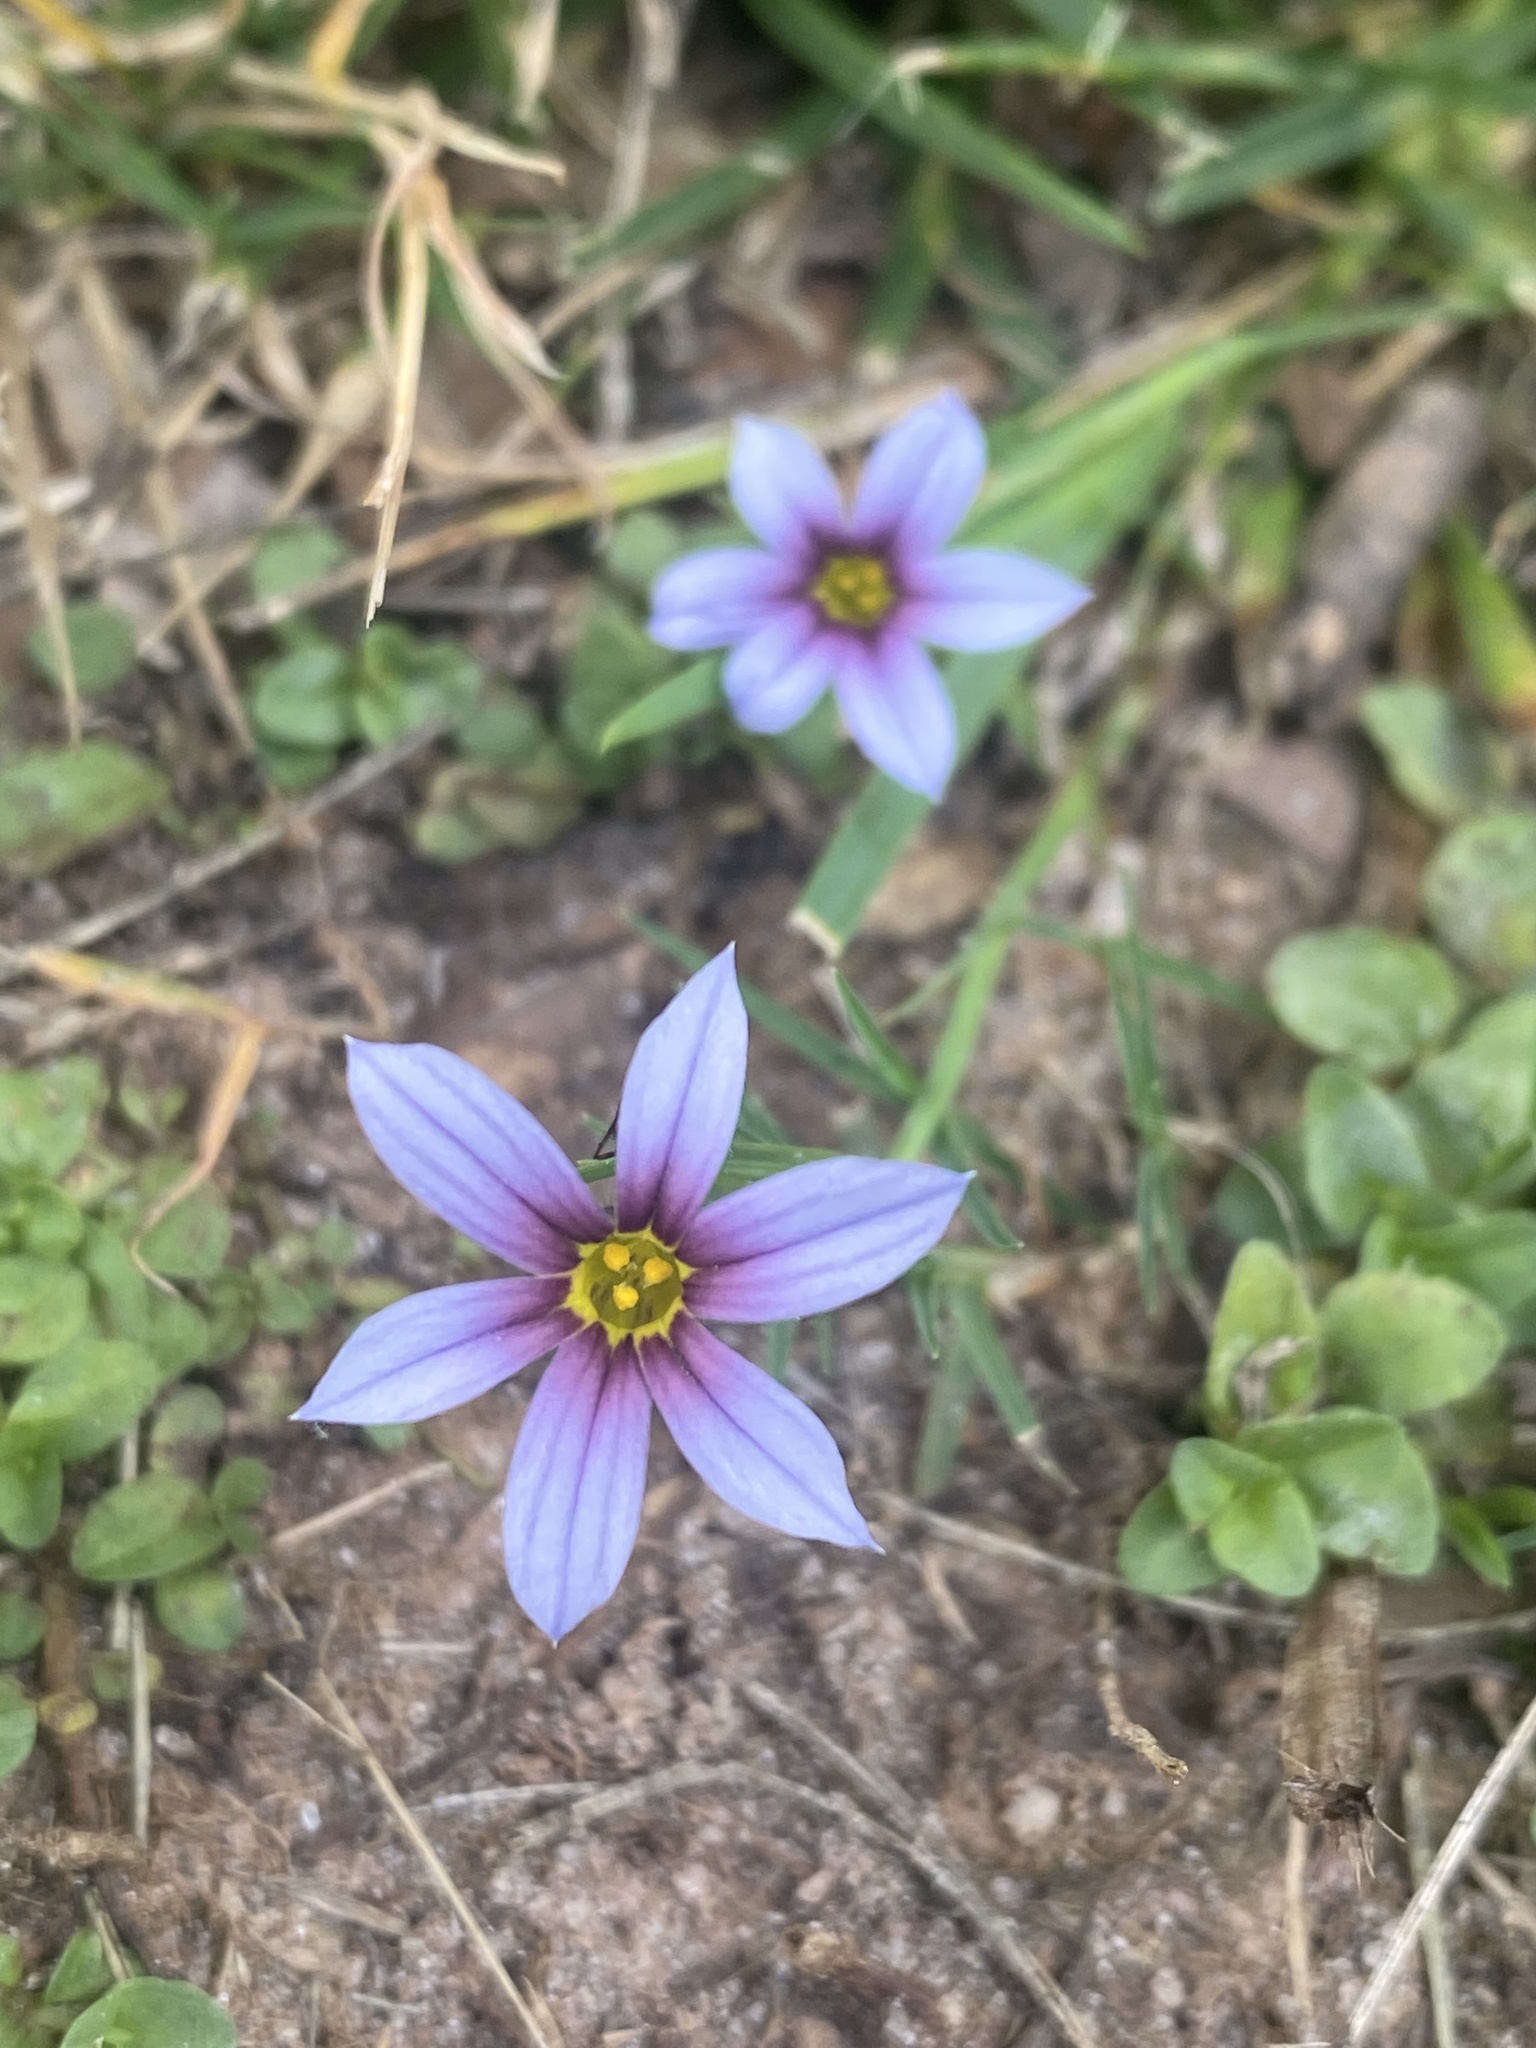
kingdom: Plantae
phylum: Tracheophyta
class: Liliopsida
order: Asparagales
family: Iridaceae
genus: Sisyrinchium
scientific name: Sisyrinchium micranthum
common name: Bermuda pigroot
